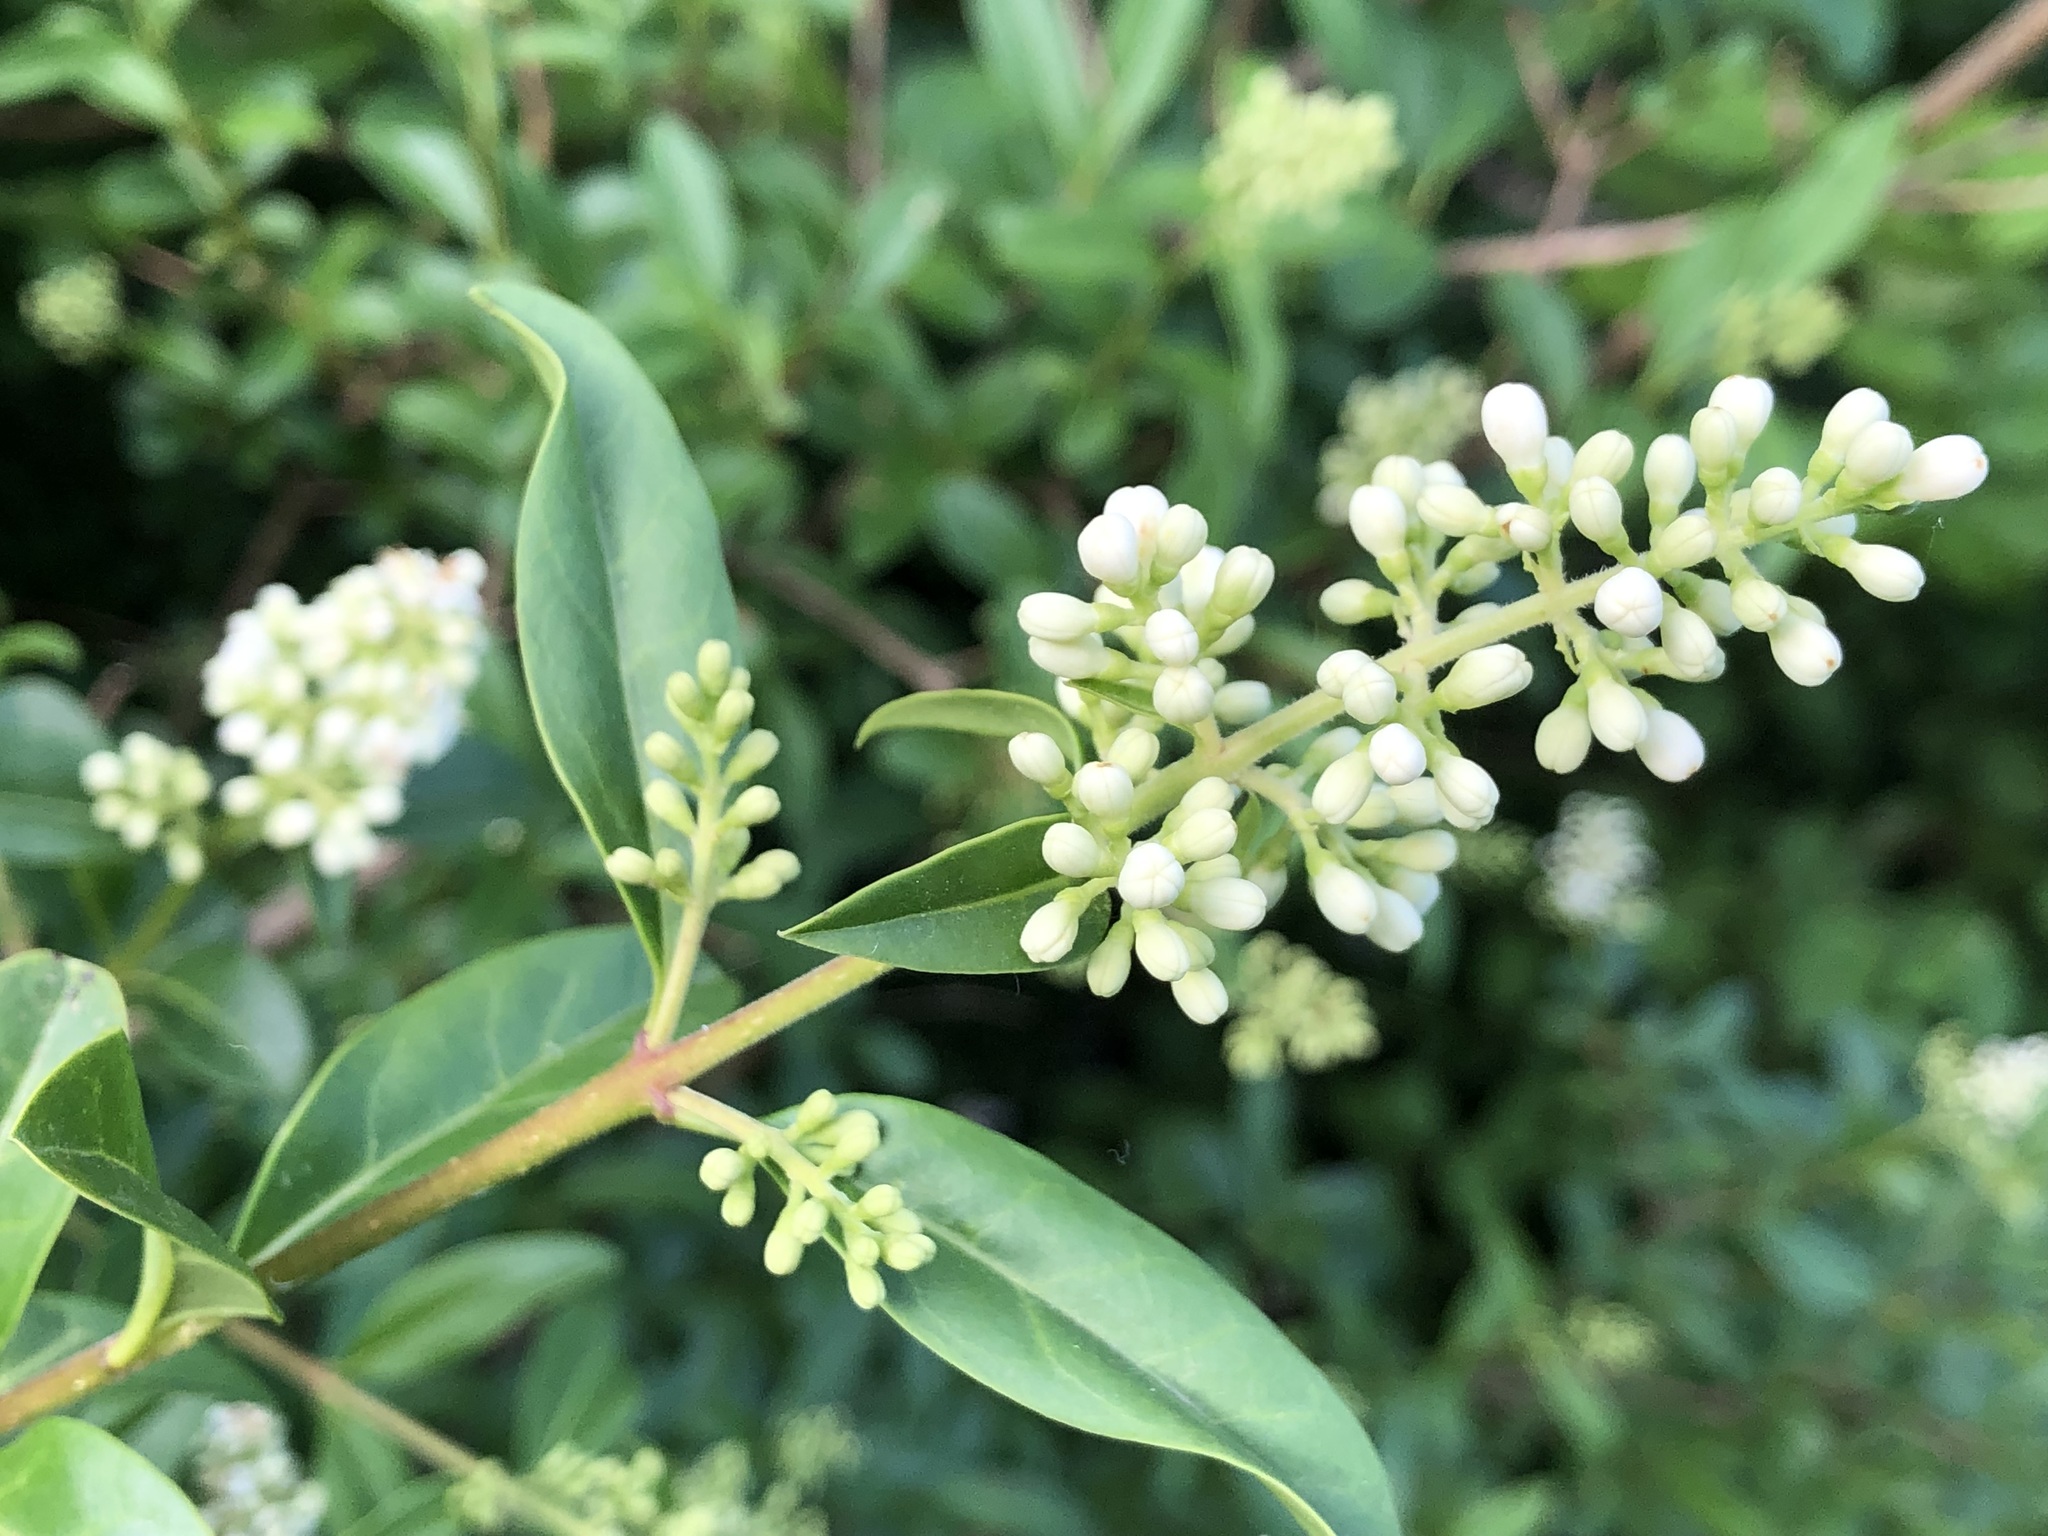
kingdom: Plantae
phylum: Tracheophyta
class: Magnoliopsida
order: Lamiales
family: Oleaceae
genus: Ligustrum
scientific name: Ligustrum vulgare
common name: Wild privet
